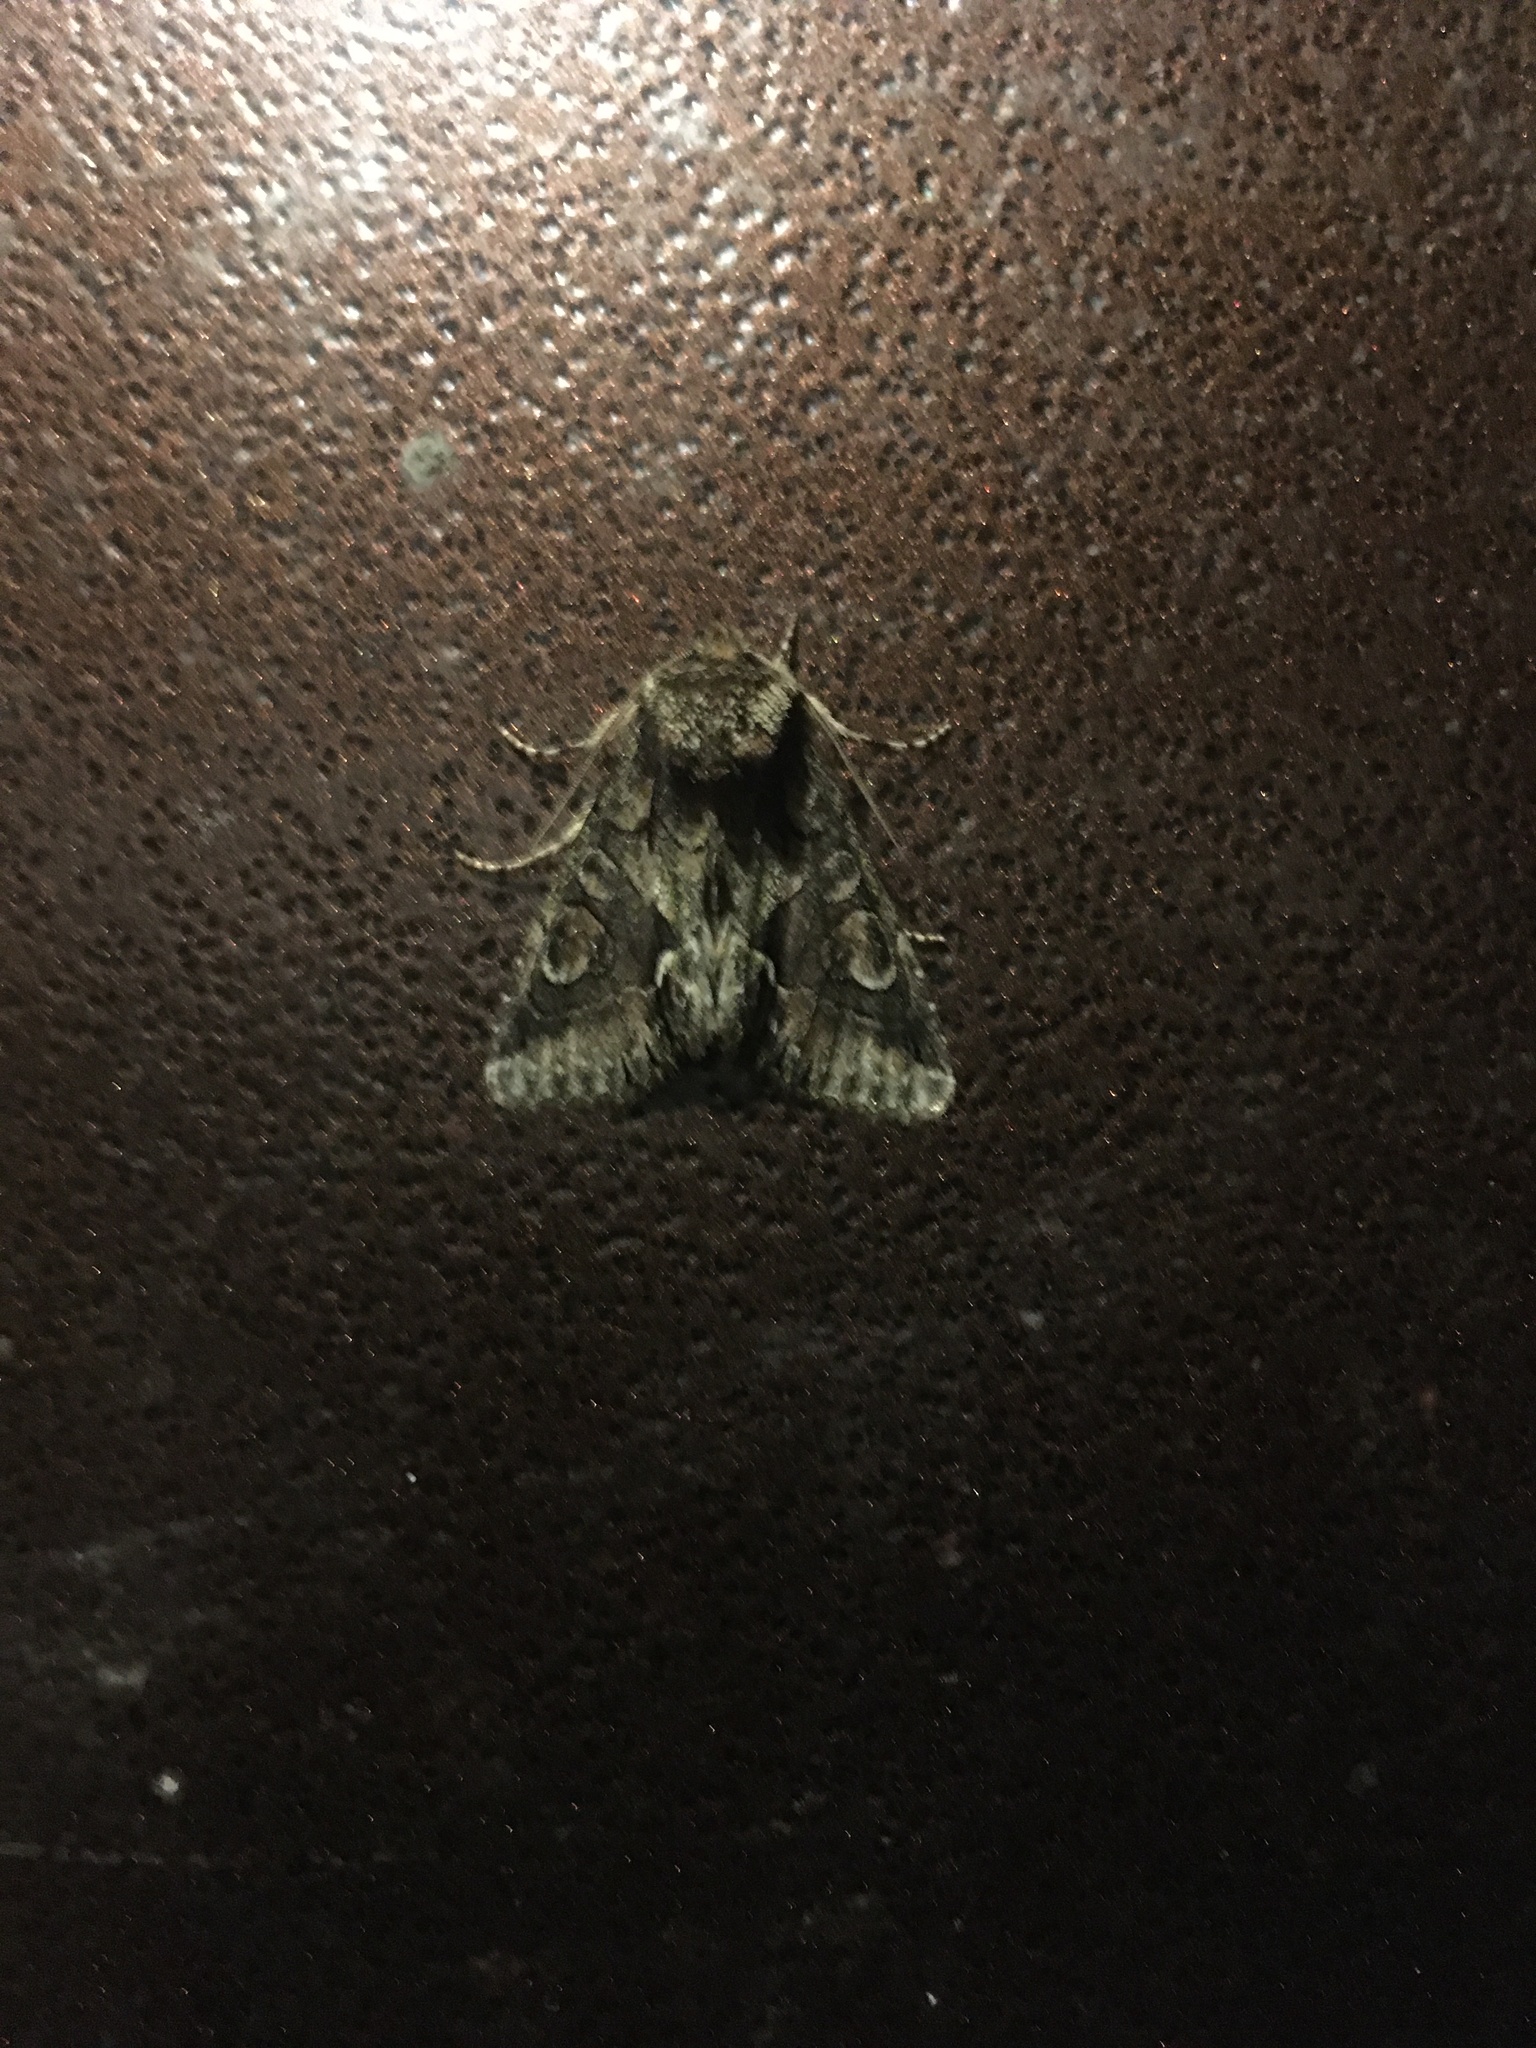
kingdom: Animalia
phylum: Arthropoda
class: Insecta
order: Lepidoptera
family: Noctuidae
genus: Allophyes
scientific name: Allophyes oxyacanthae
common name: Green-brindled crescent
